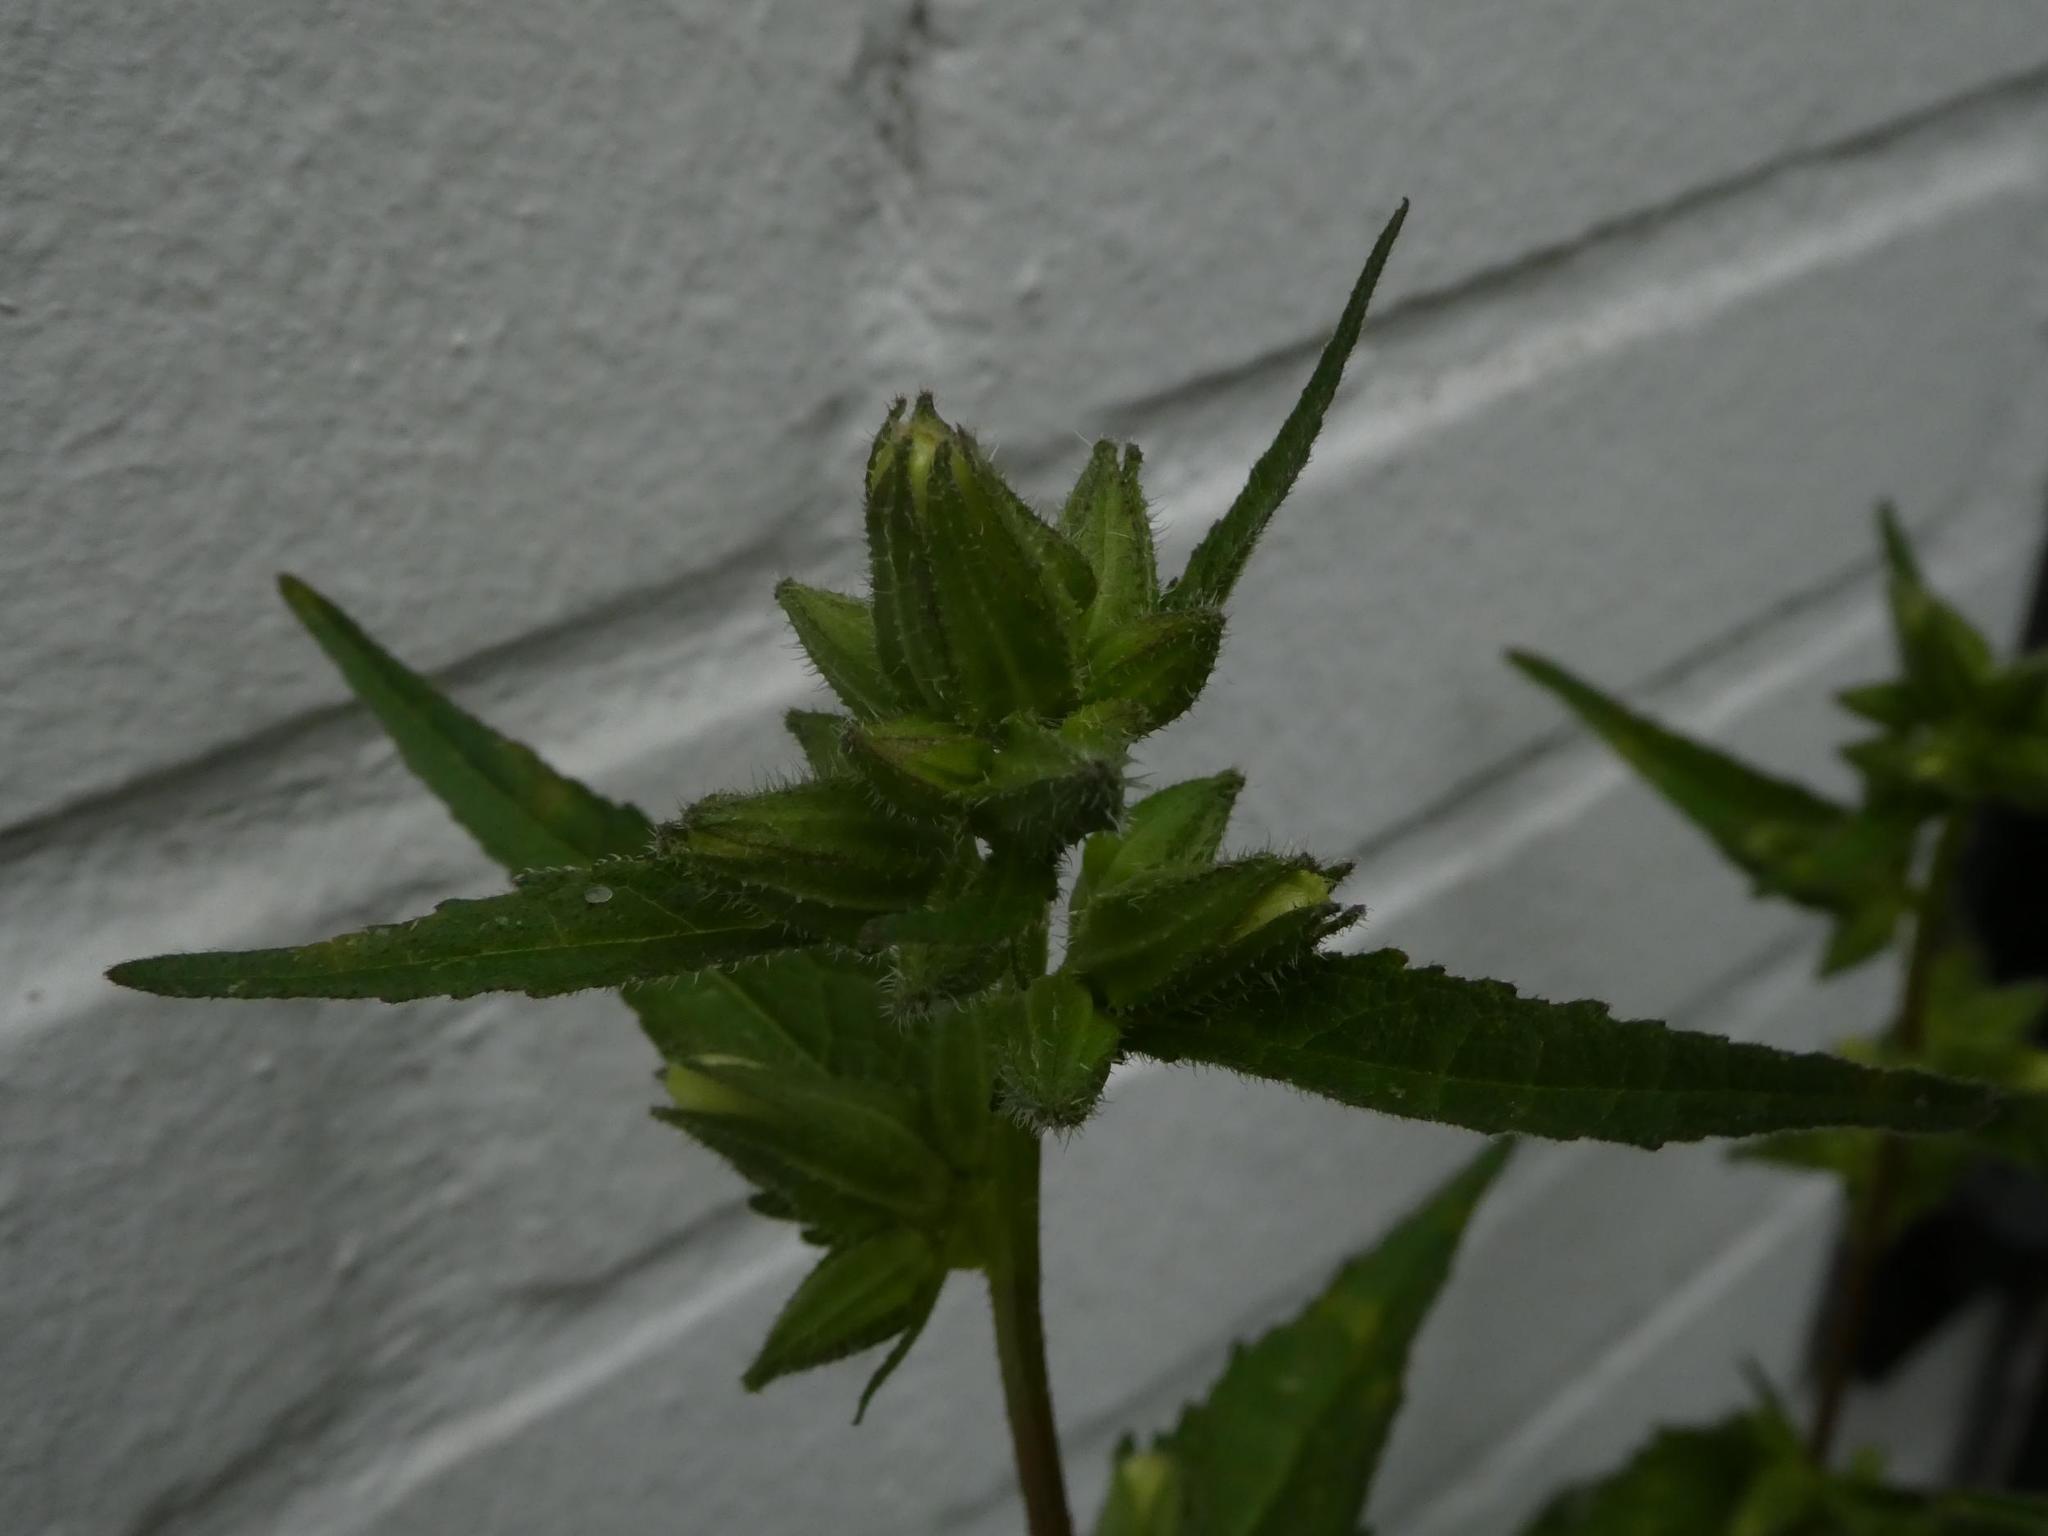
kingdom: Plantae
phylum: Tracheophyta
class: Magnoliopsida
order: Asterales
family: Campanulaceae
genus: Campanula
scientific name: Campanula trachelium
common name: Nettle-leaved bellflower
